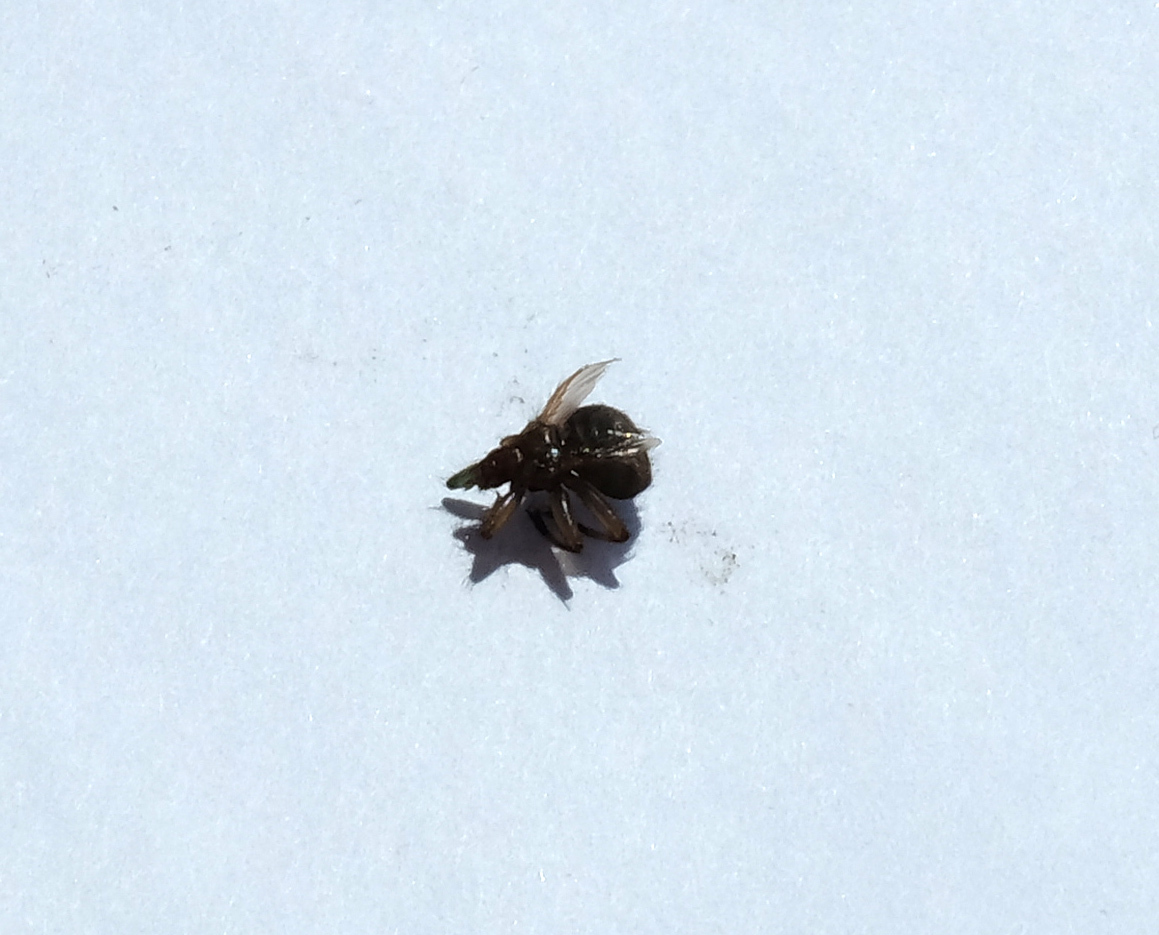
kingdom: Animalia
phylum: Arthropoda
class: Insecta
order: Diptera
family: Hippoboscidae
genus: Crataerina
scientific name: Crataerina pallida
